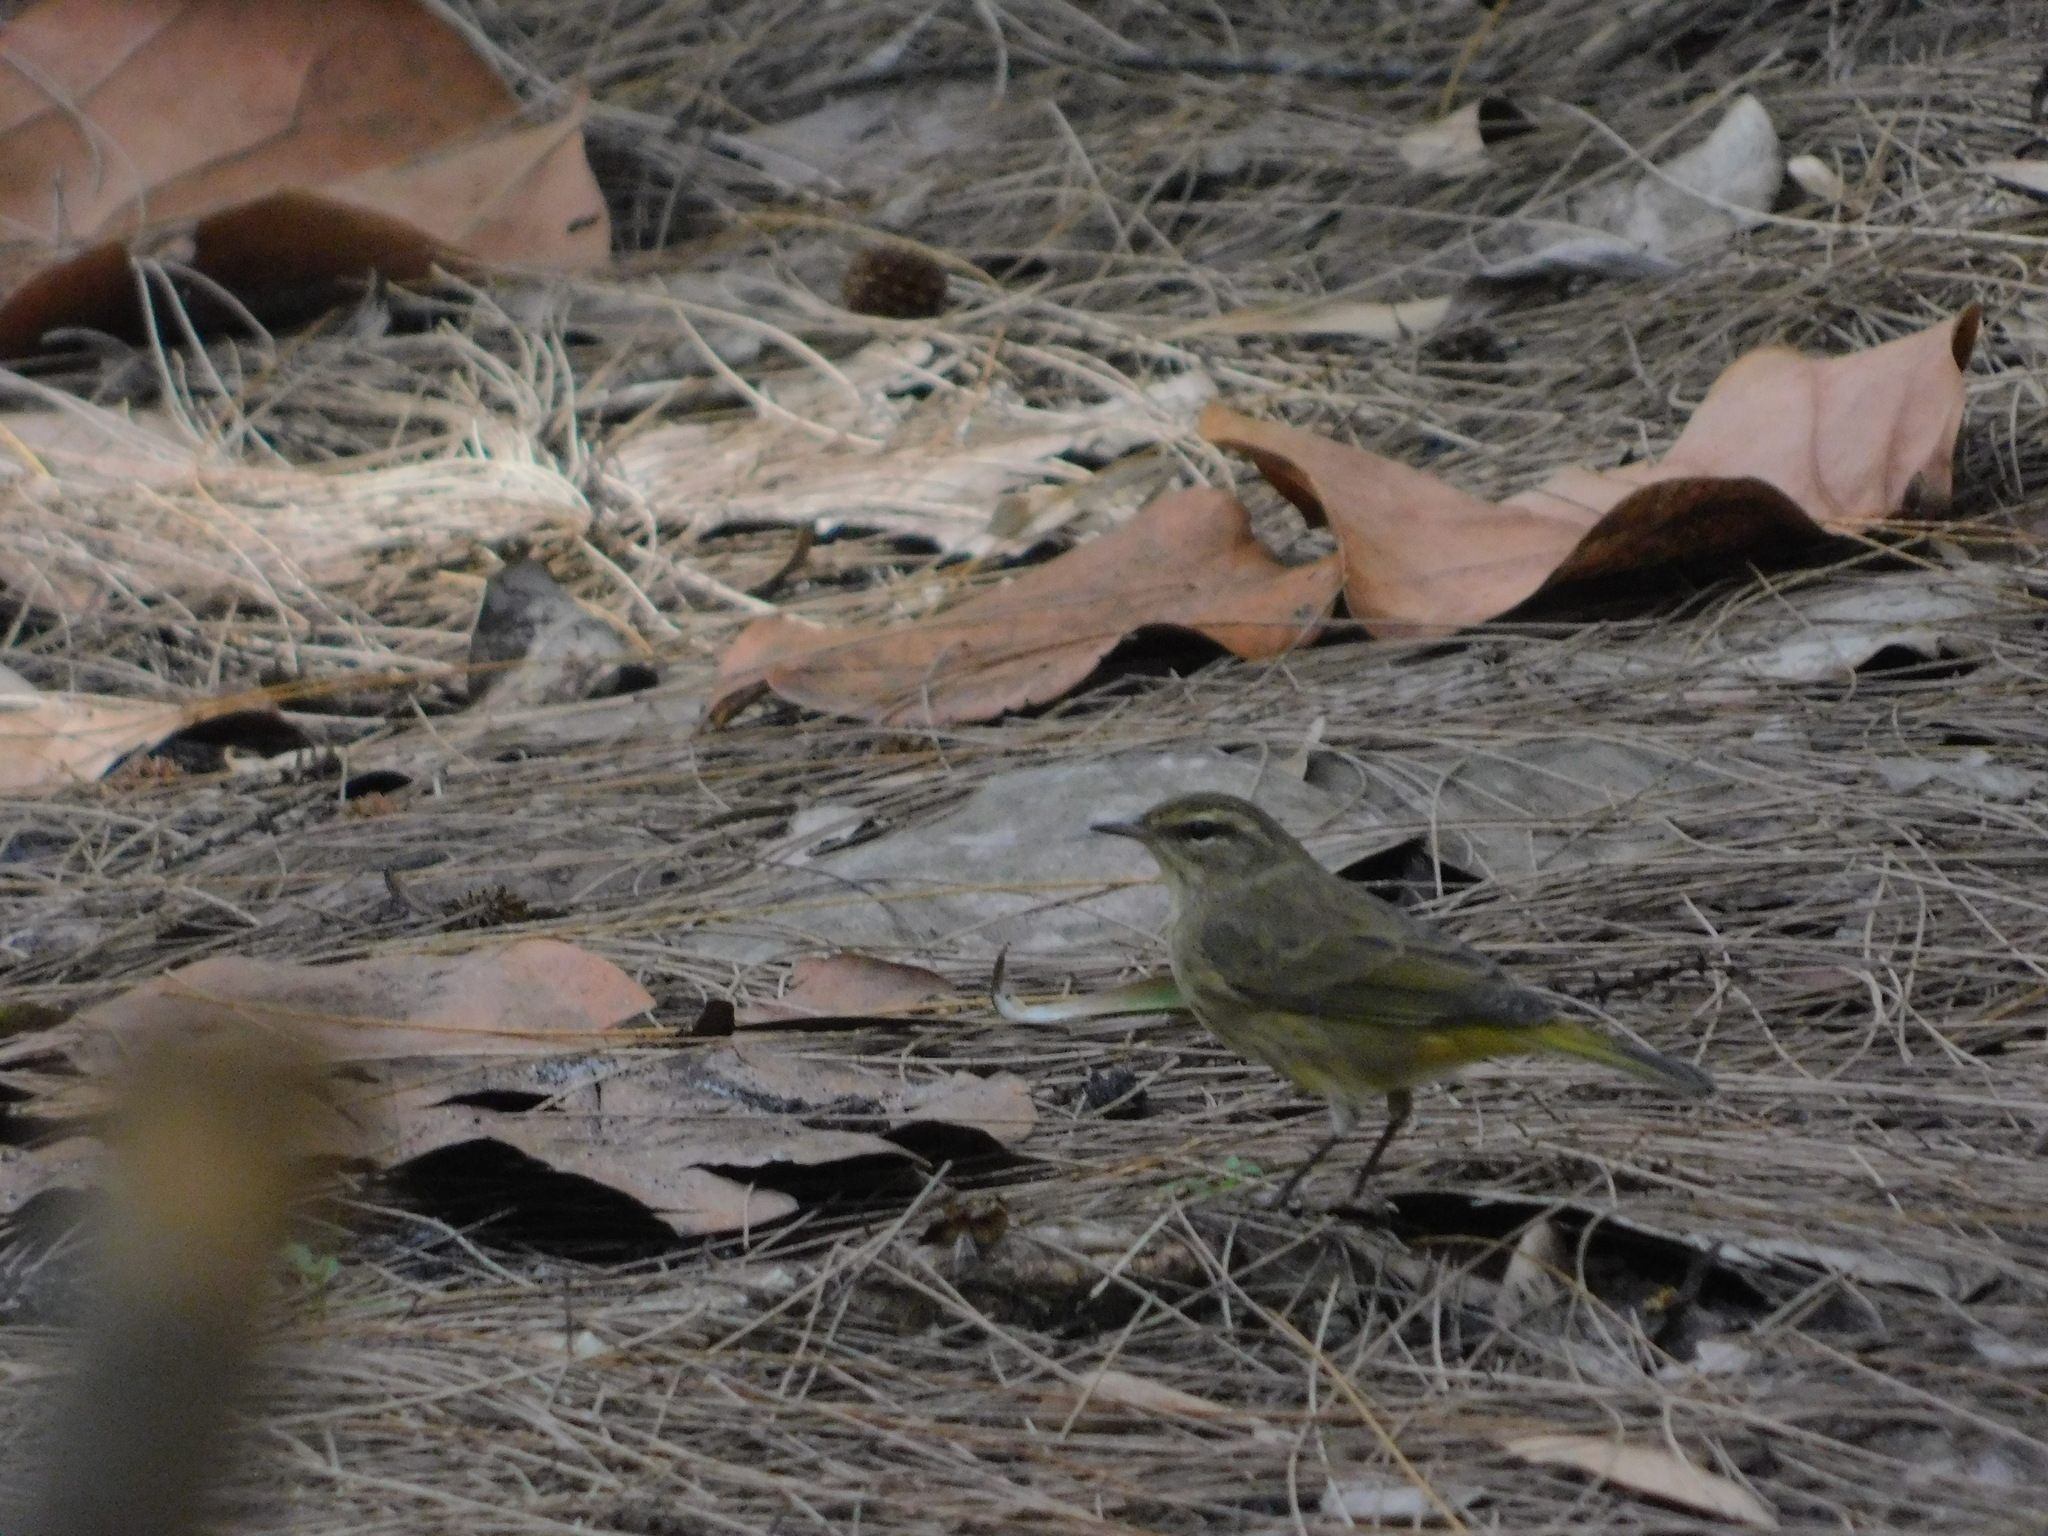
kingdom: Animalia
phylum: Chordata
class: Aves
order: Passeriformes
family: Parulidae
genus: Setophaga
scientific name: Setophaga palmarum
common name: Palm warbler
